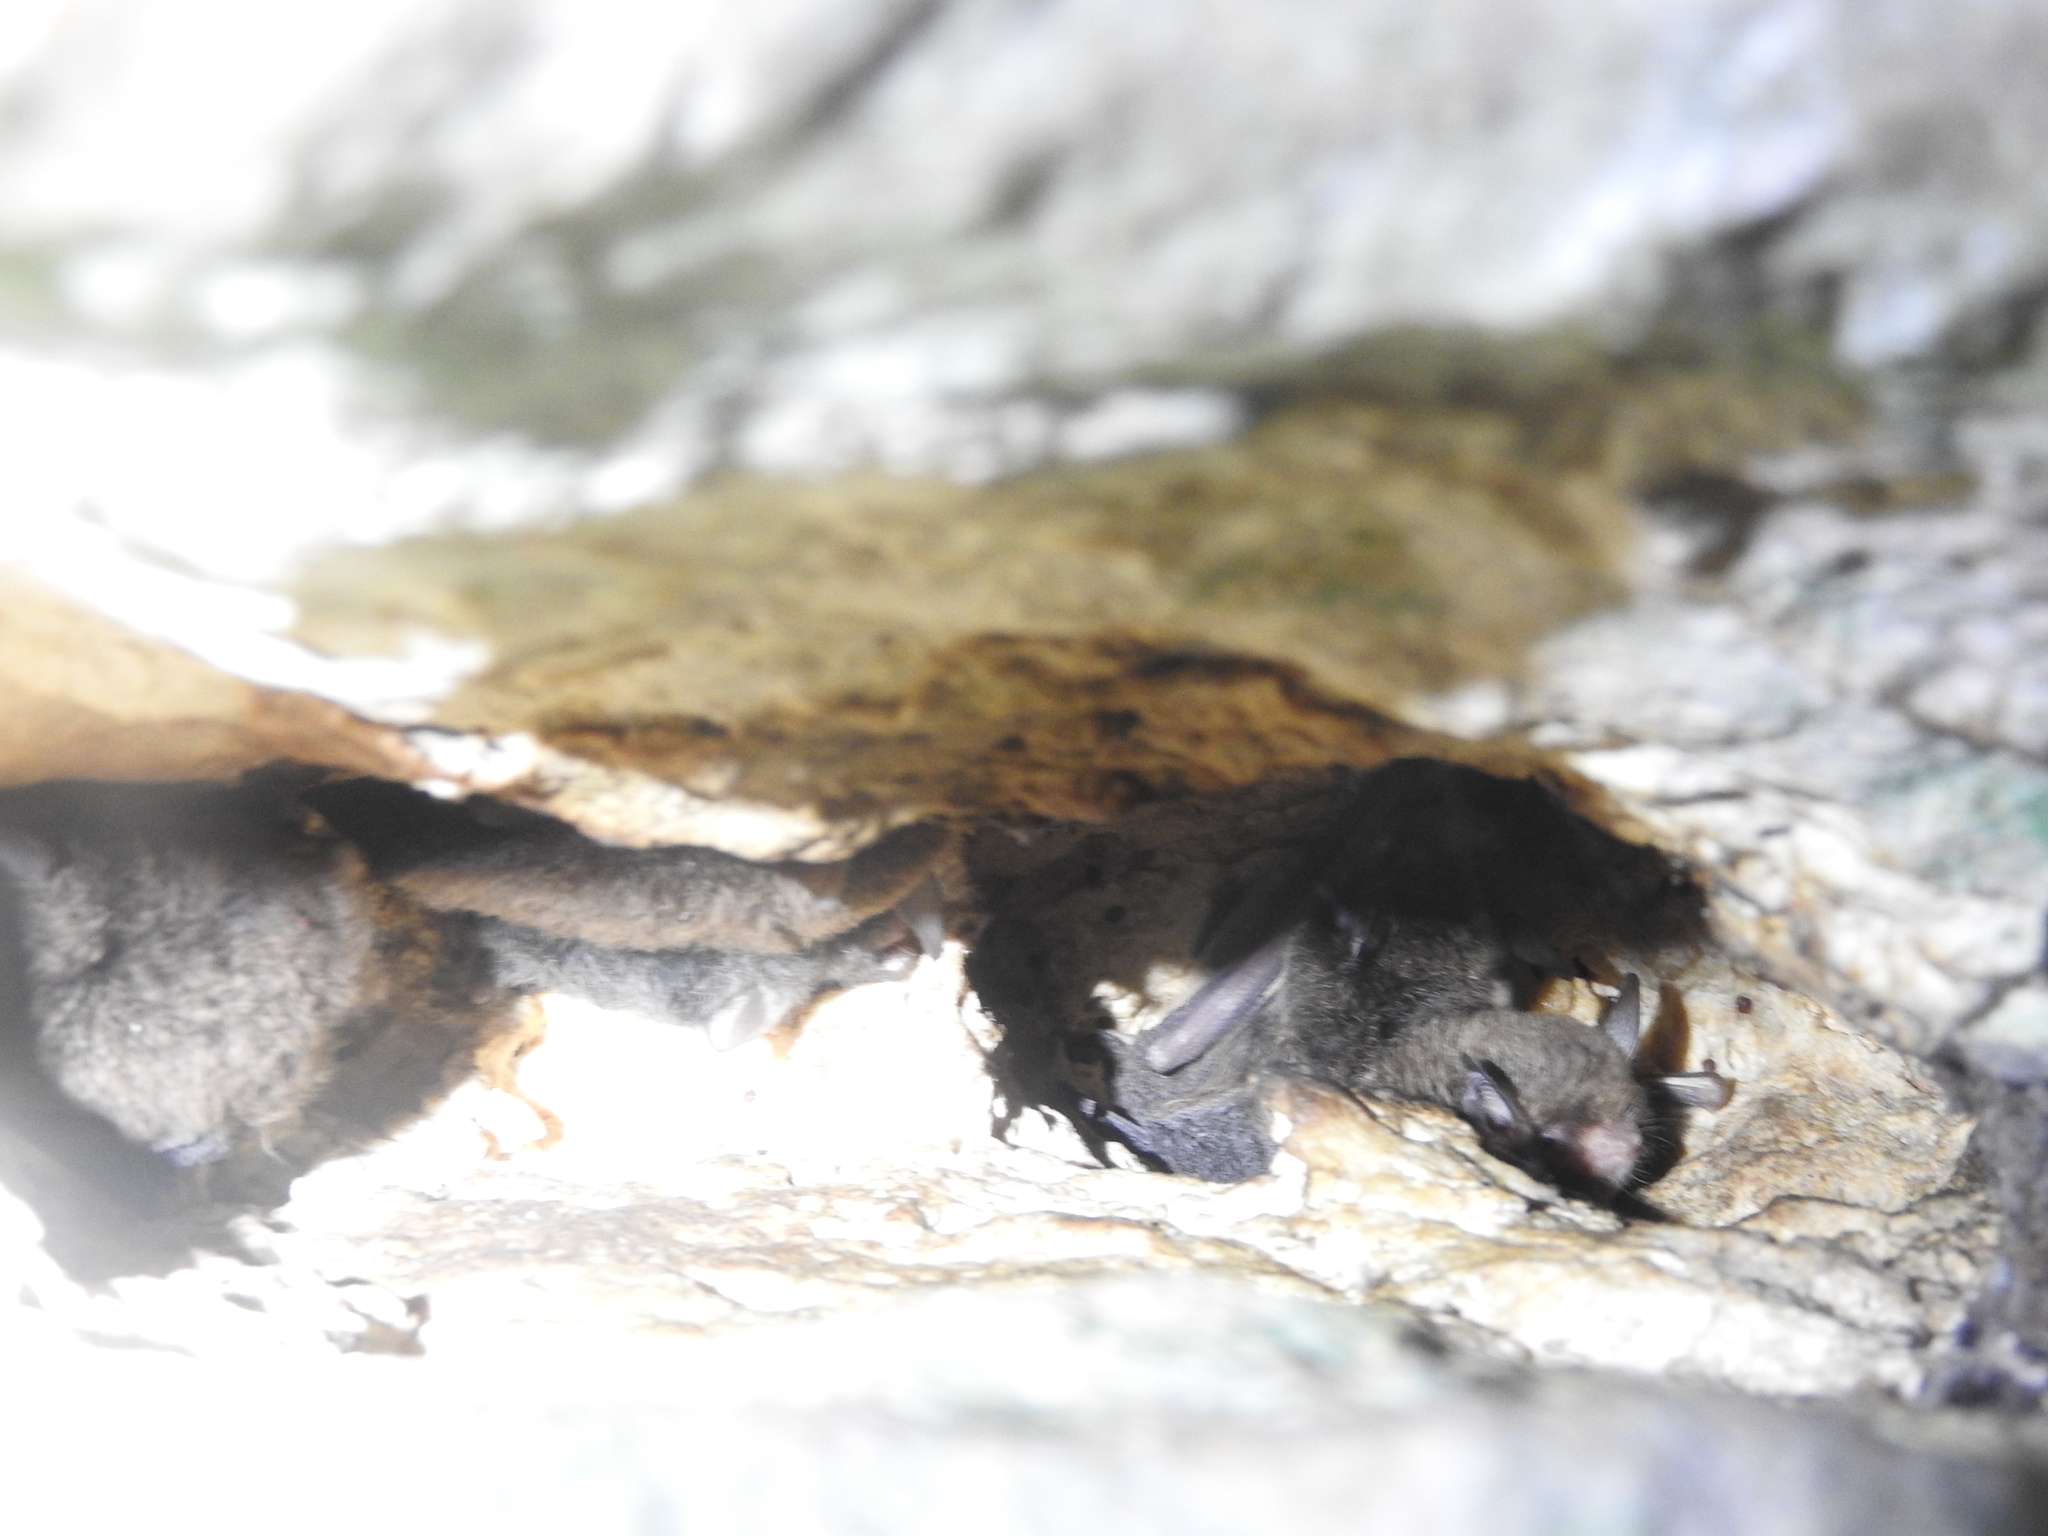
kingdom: Animalia
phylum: Chordata
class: Mammalia
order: Chiroptera
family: Vespertilionidae
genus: Myotis
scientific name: Myotis pilosatibialis
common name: Northern hairy-legged myotis
